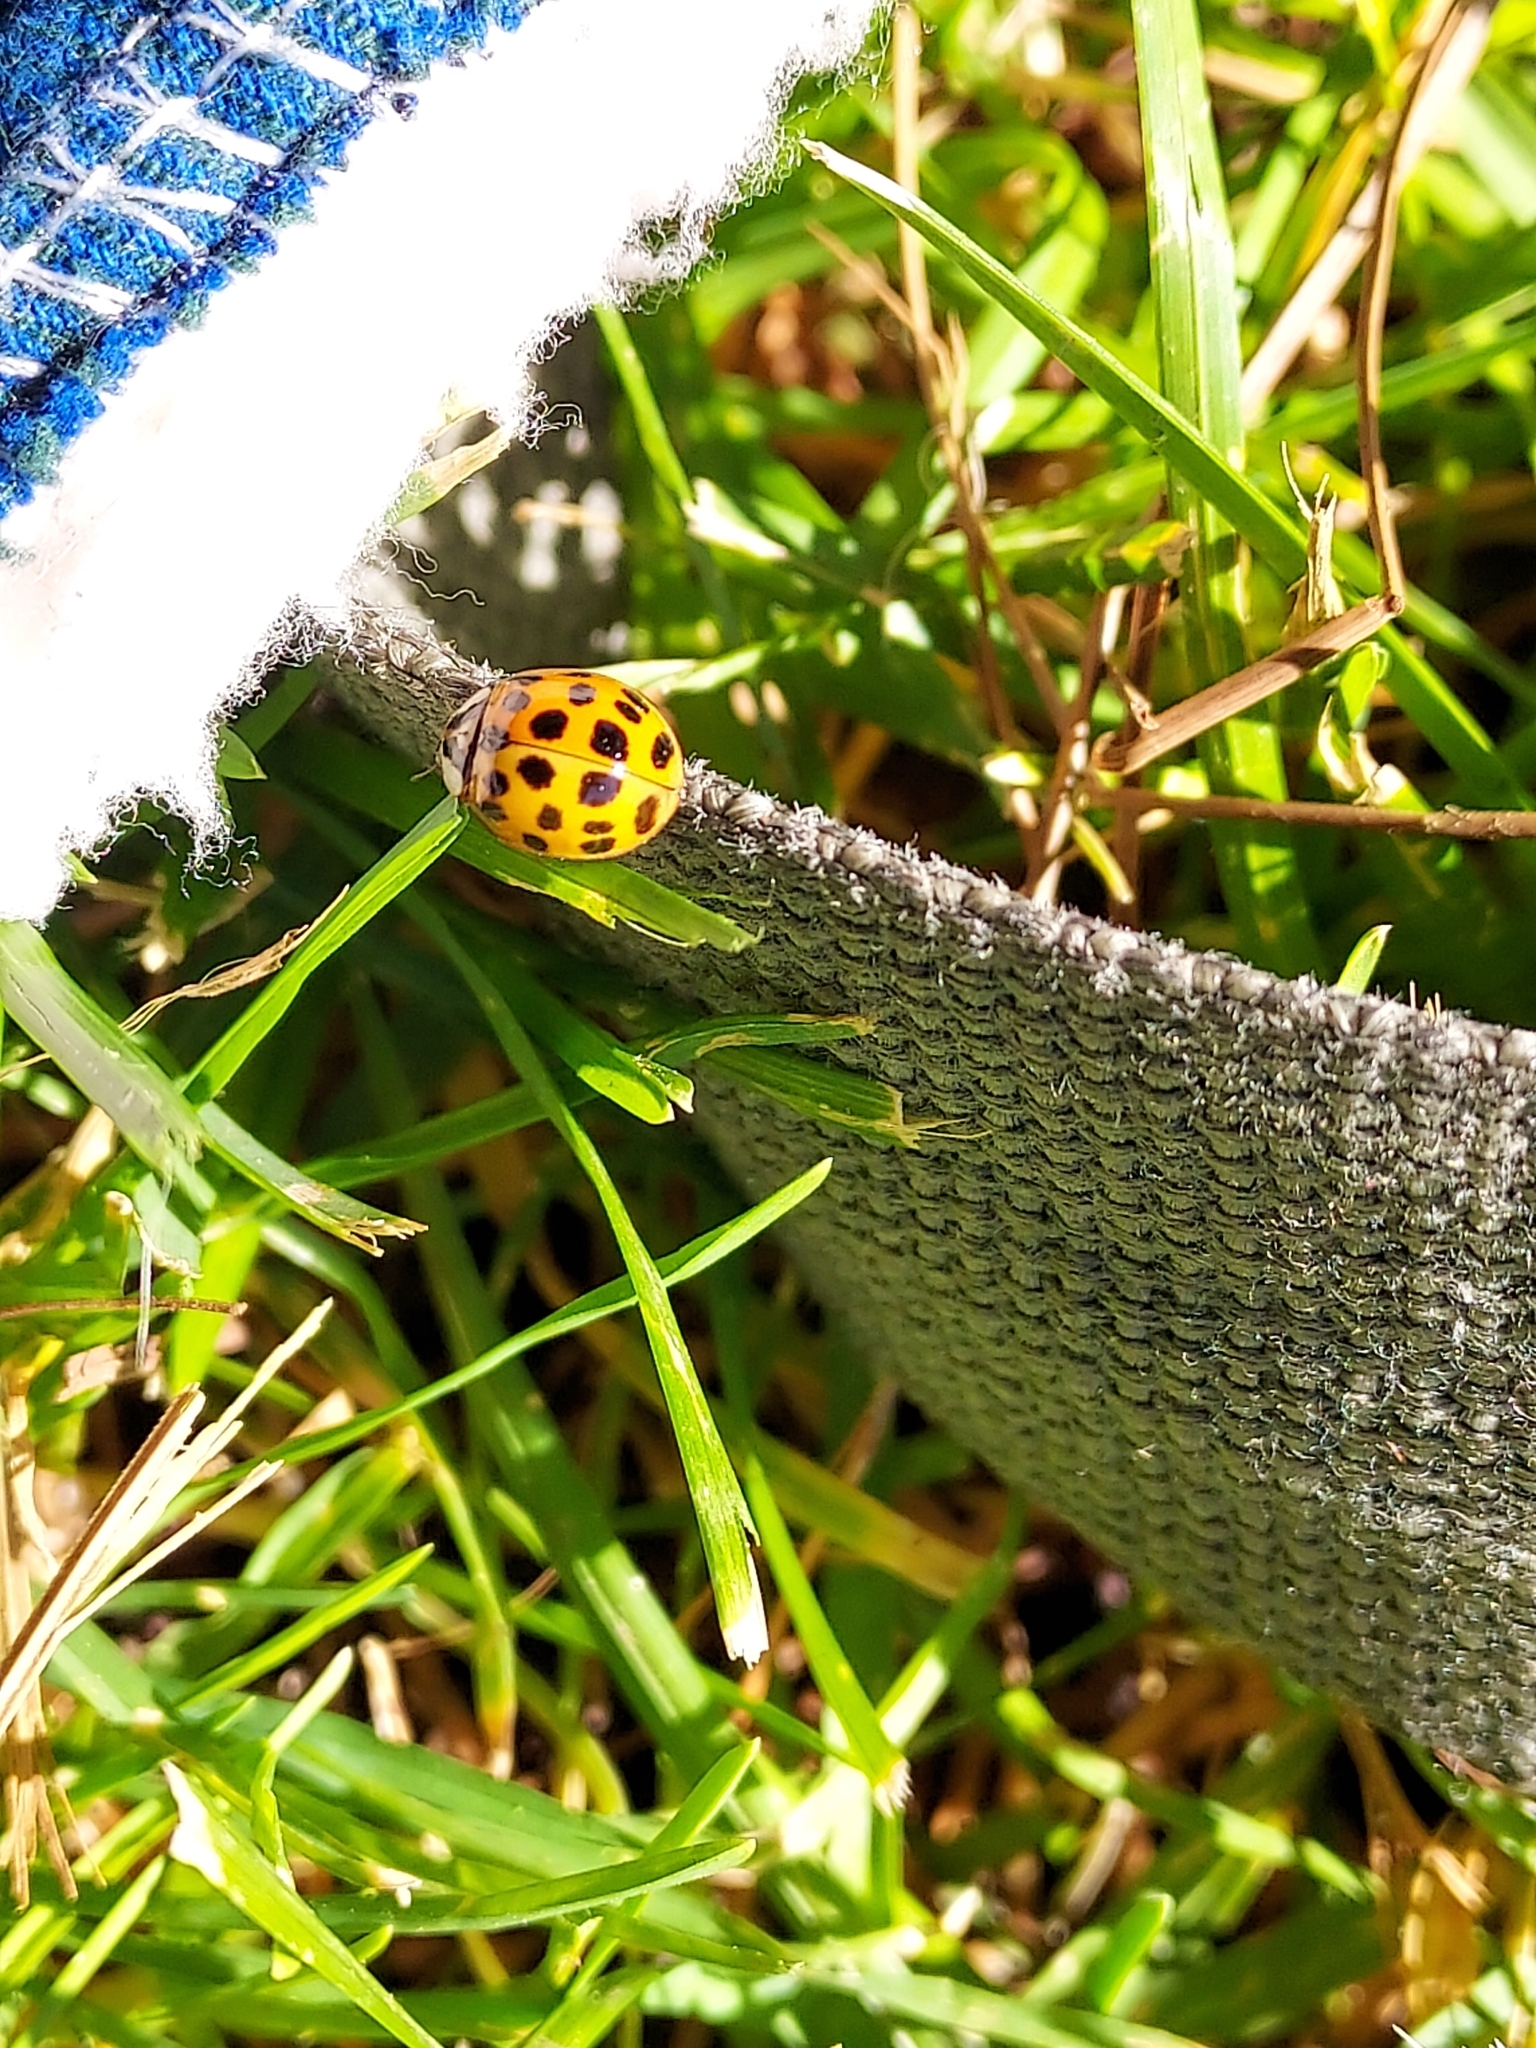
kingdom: Animalia
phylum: Arthropoda
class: Insecta
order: Coleoptera
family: Coccinellidae
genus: Harmonia
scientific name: Harmonia axyridis
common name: Harlequin ladybird
